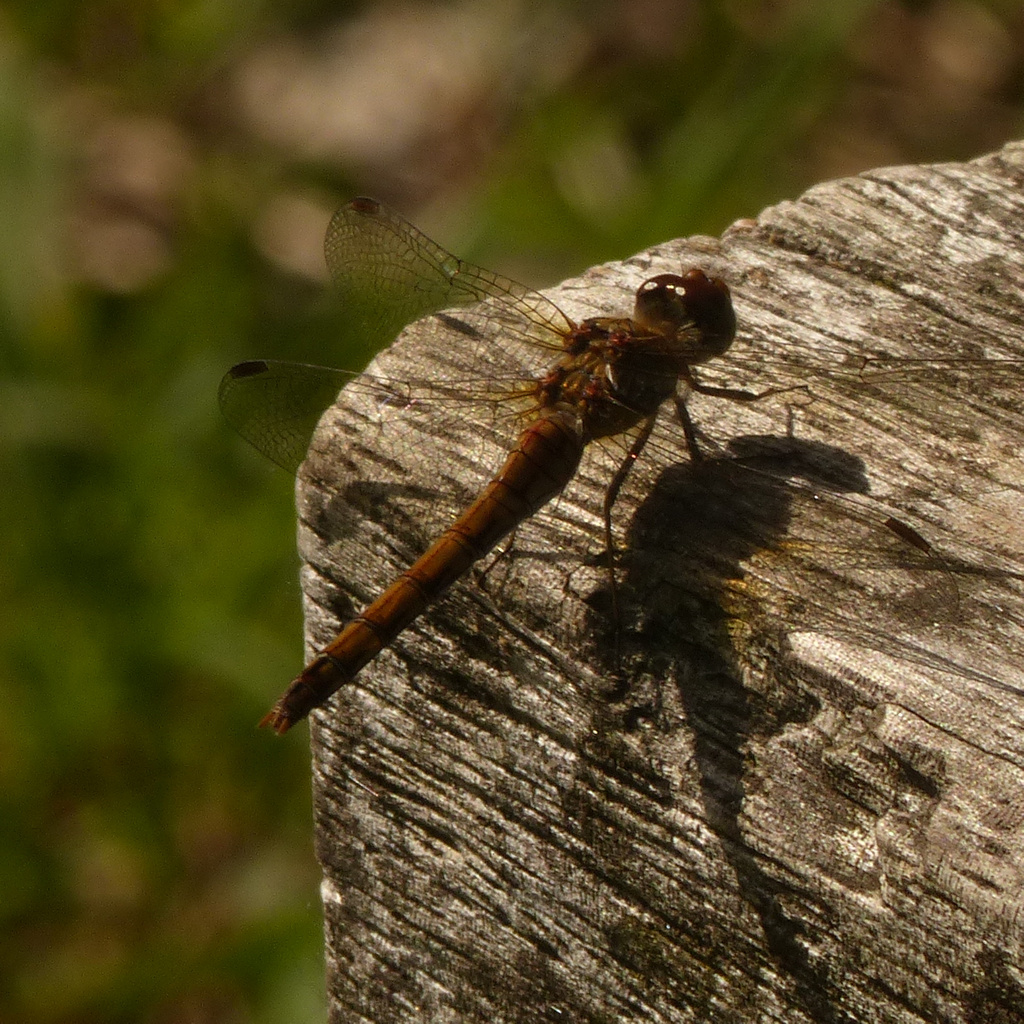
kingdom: Animalia
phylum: Arthropoda
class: Insecta
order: Odonata
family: Libellulidae
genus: Sympetrum
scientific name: Sympetrum striolatum
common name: Common darter
